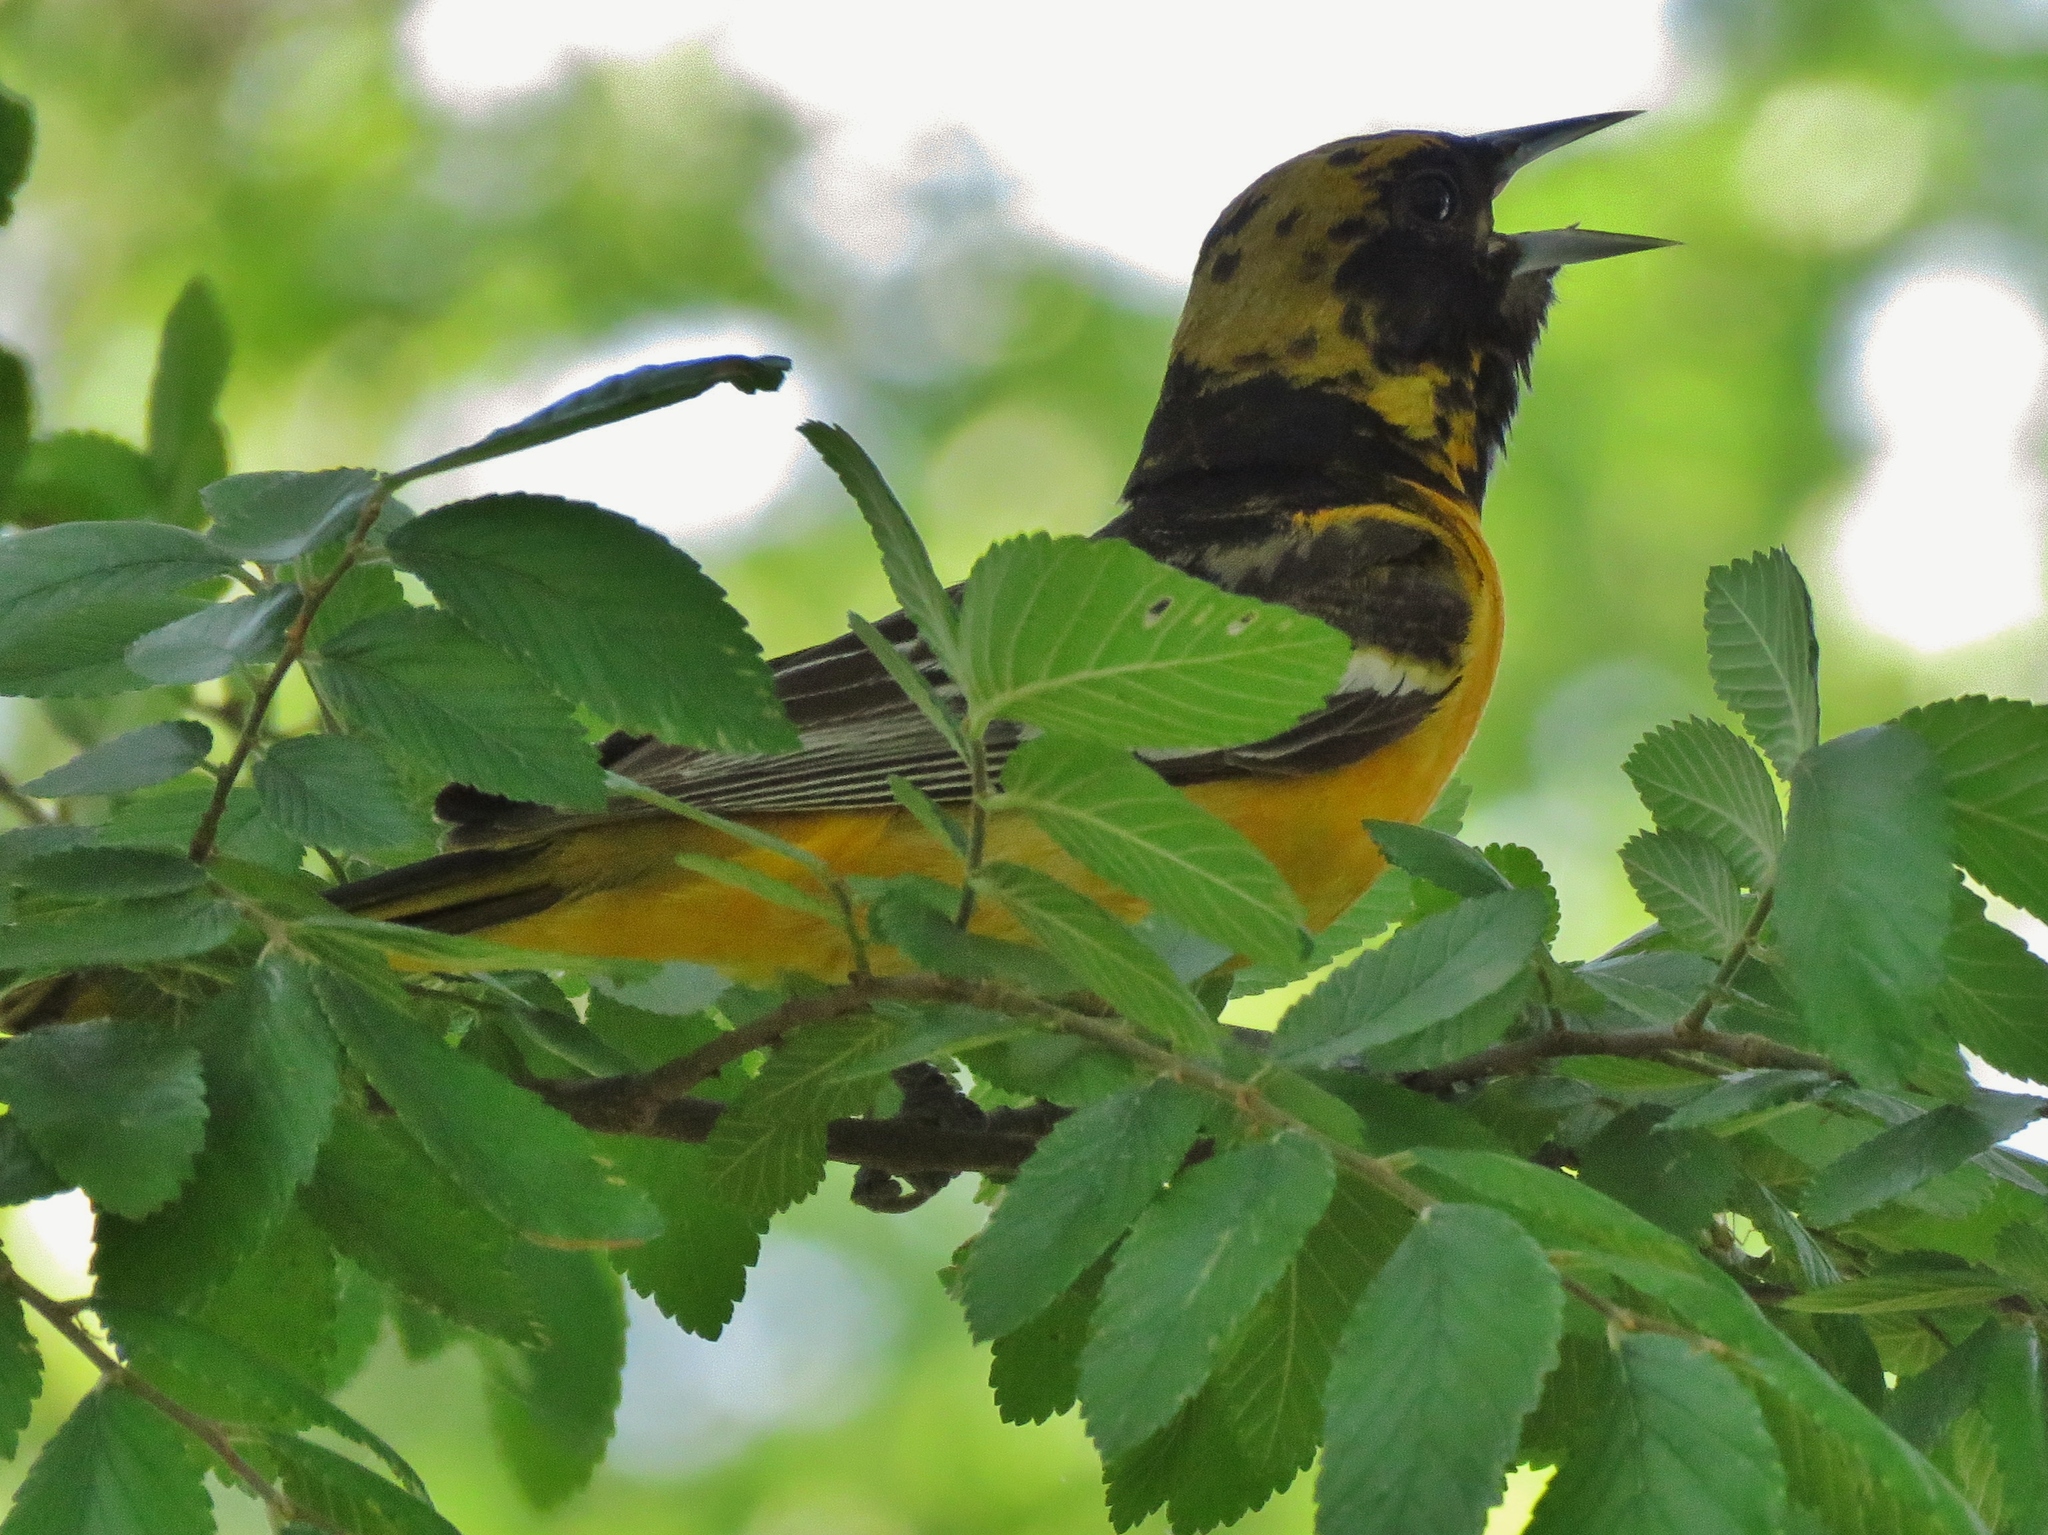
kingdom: Animalia
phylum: Chordata
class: Aves
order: Passeriformes
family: Icteridae
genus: Icterus
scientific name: Icterus galbula
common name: Baltimore oriole
